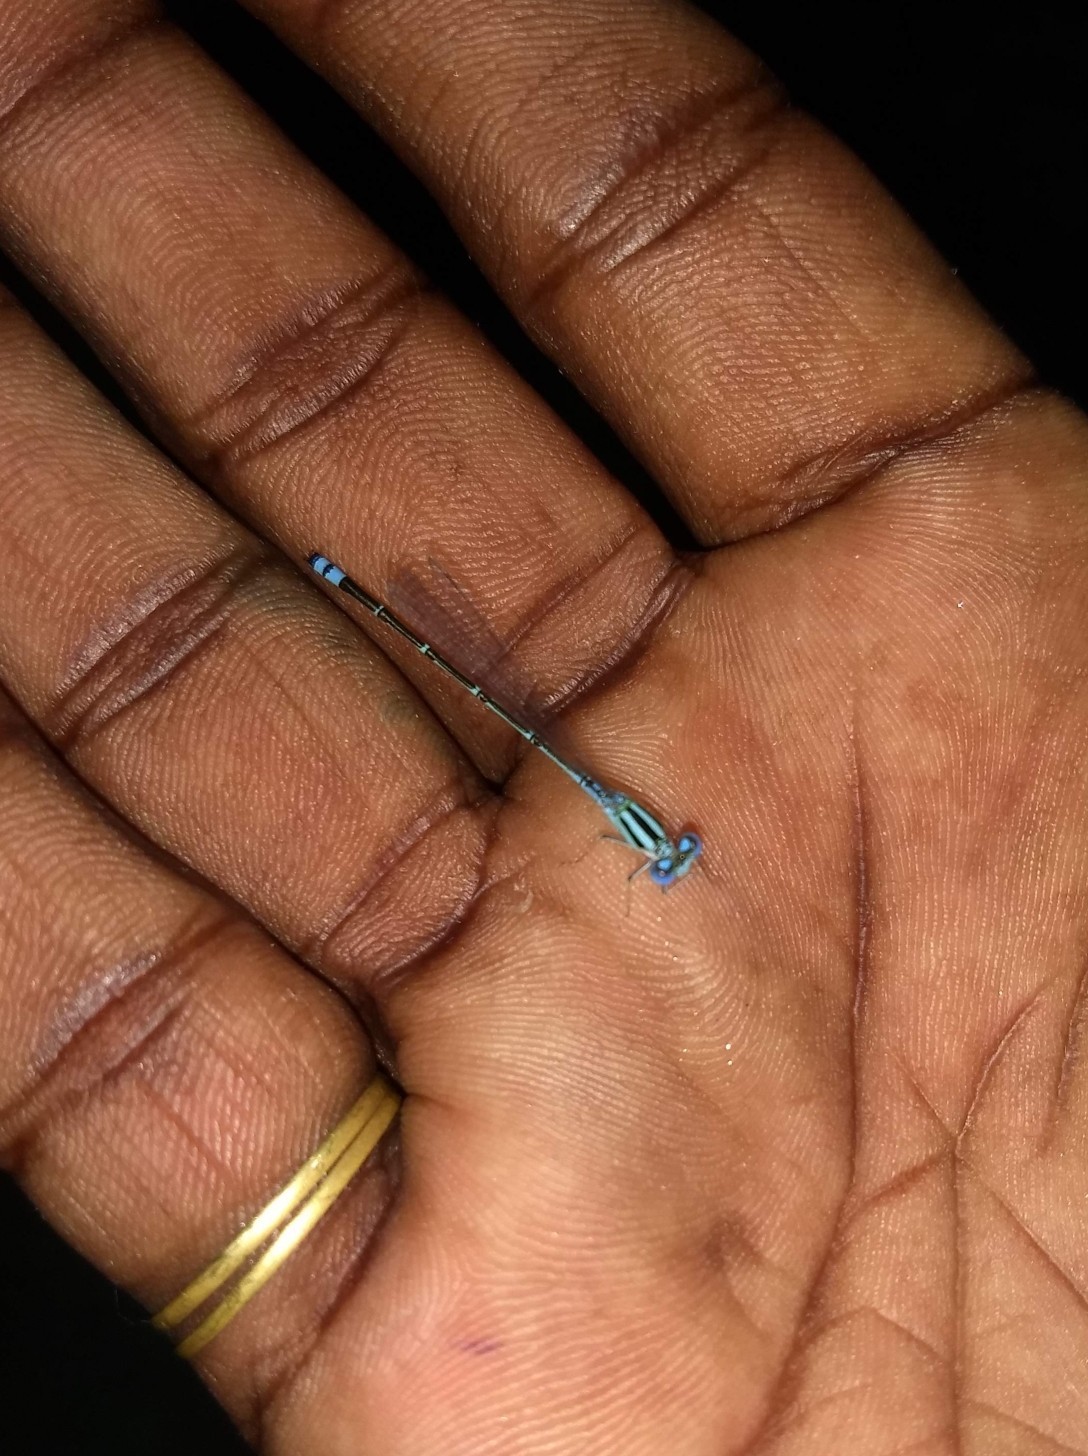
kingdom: Animalia
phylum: Arthropoda
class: Insecta
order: Odonata
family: Coenagrionidae
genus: Pseudagrion
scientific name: Pseudagrion microcephalum
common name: Blue riverdamsel
